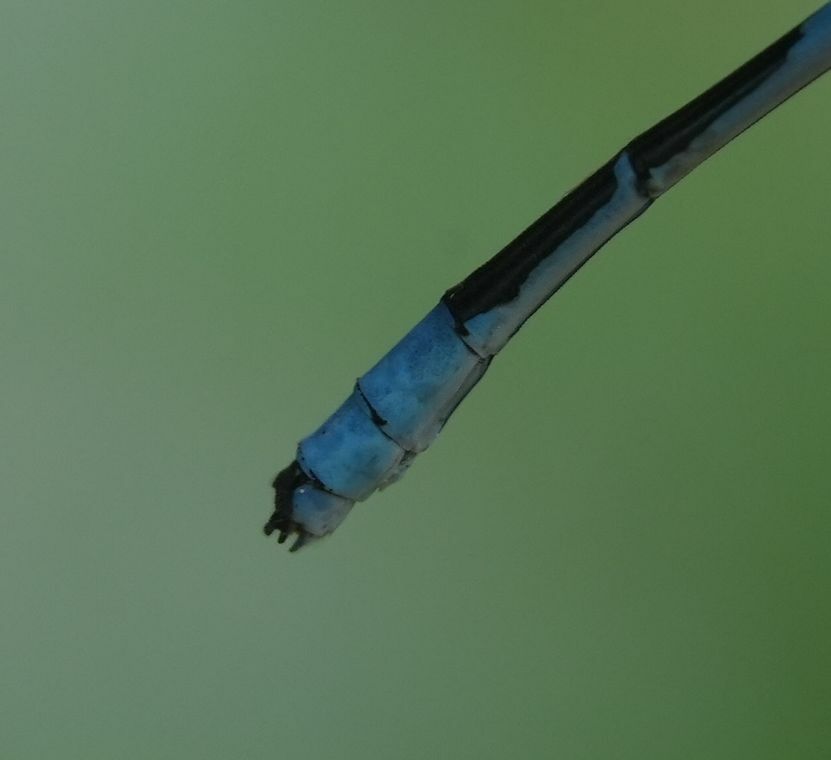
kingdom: Animalia
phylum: Arthropoda
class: Insecta
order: Odonata
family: Coenagrionidae
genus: Enallagma
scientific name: Enallagma ebrium
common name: Marsh bluet
